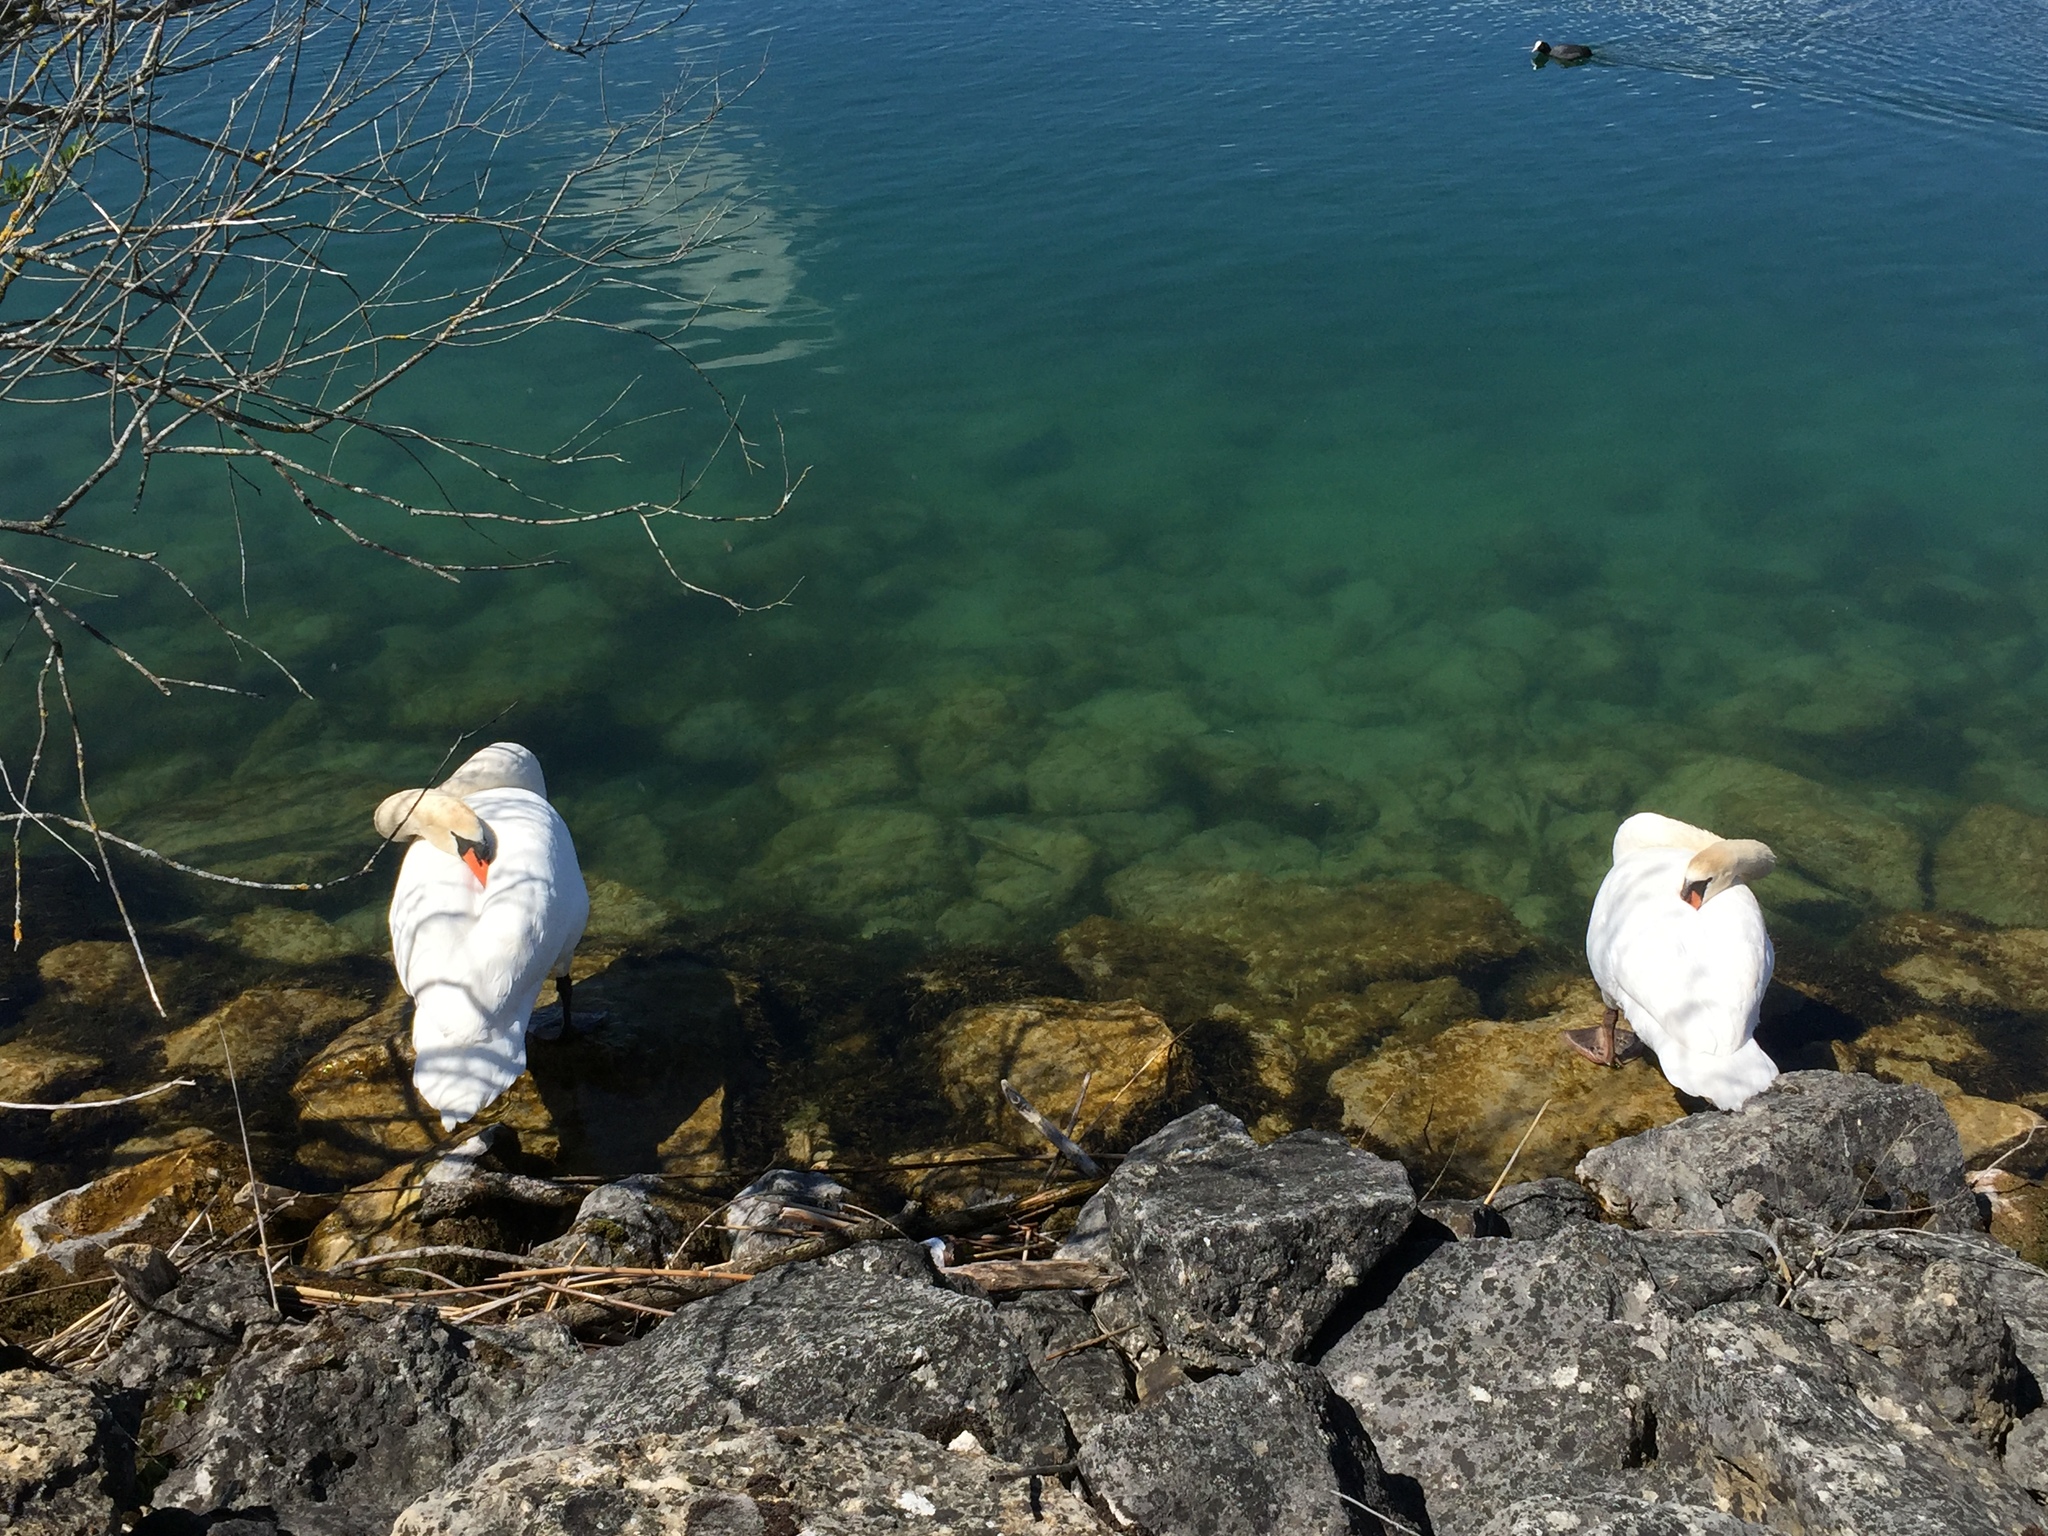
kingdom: Animalia
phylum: Chordata
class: Aves
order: Anseriformes
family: Anatidae
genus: Cygnus
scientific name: Cygnus olor
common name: Mute swan
